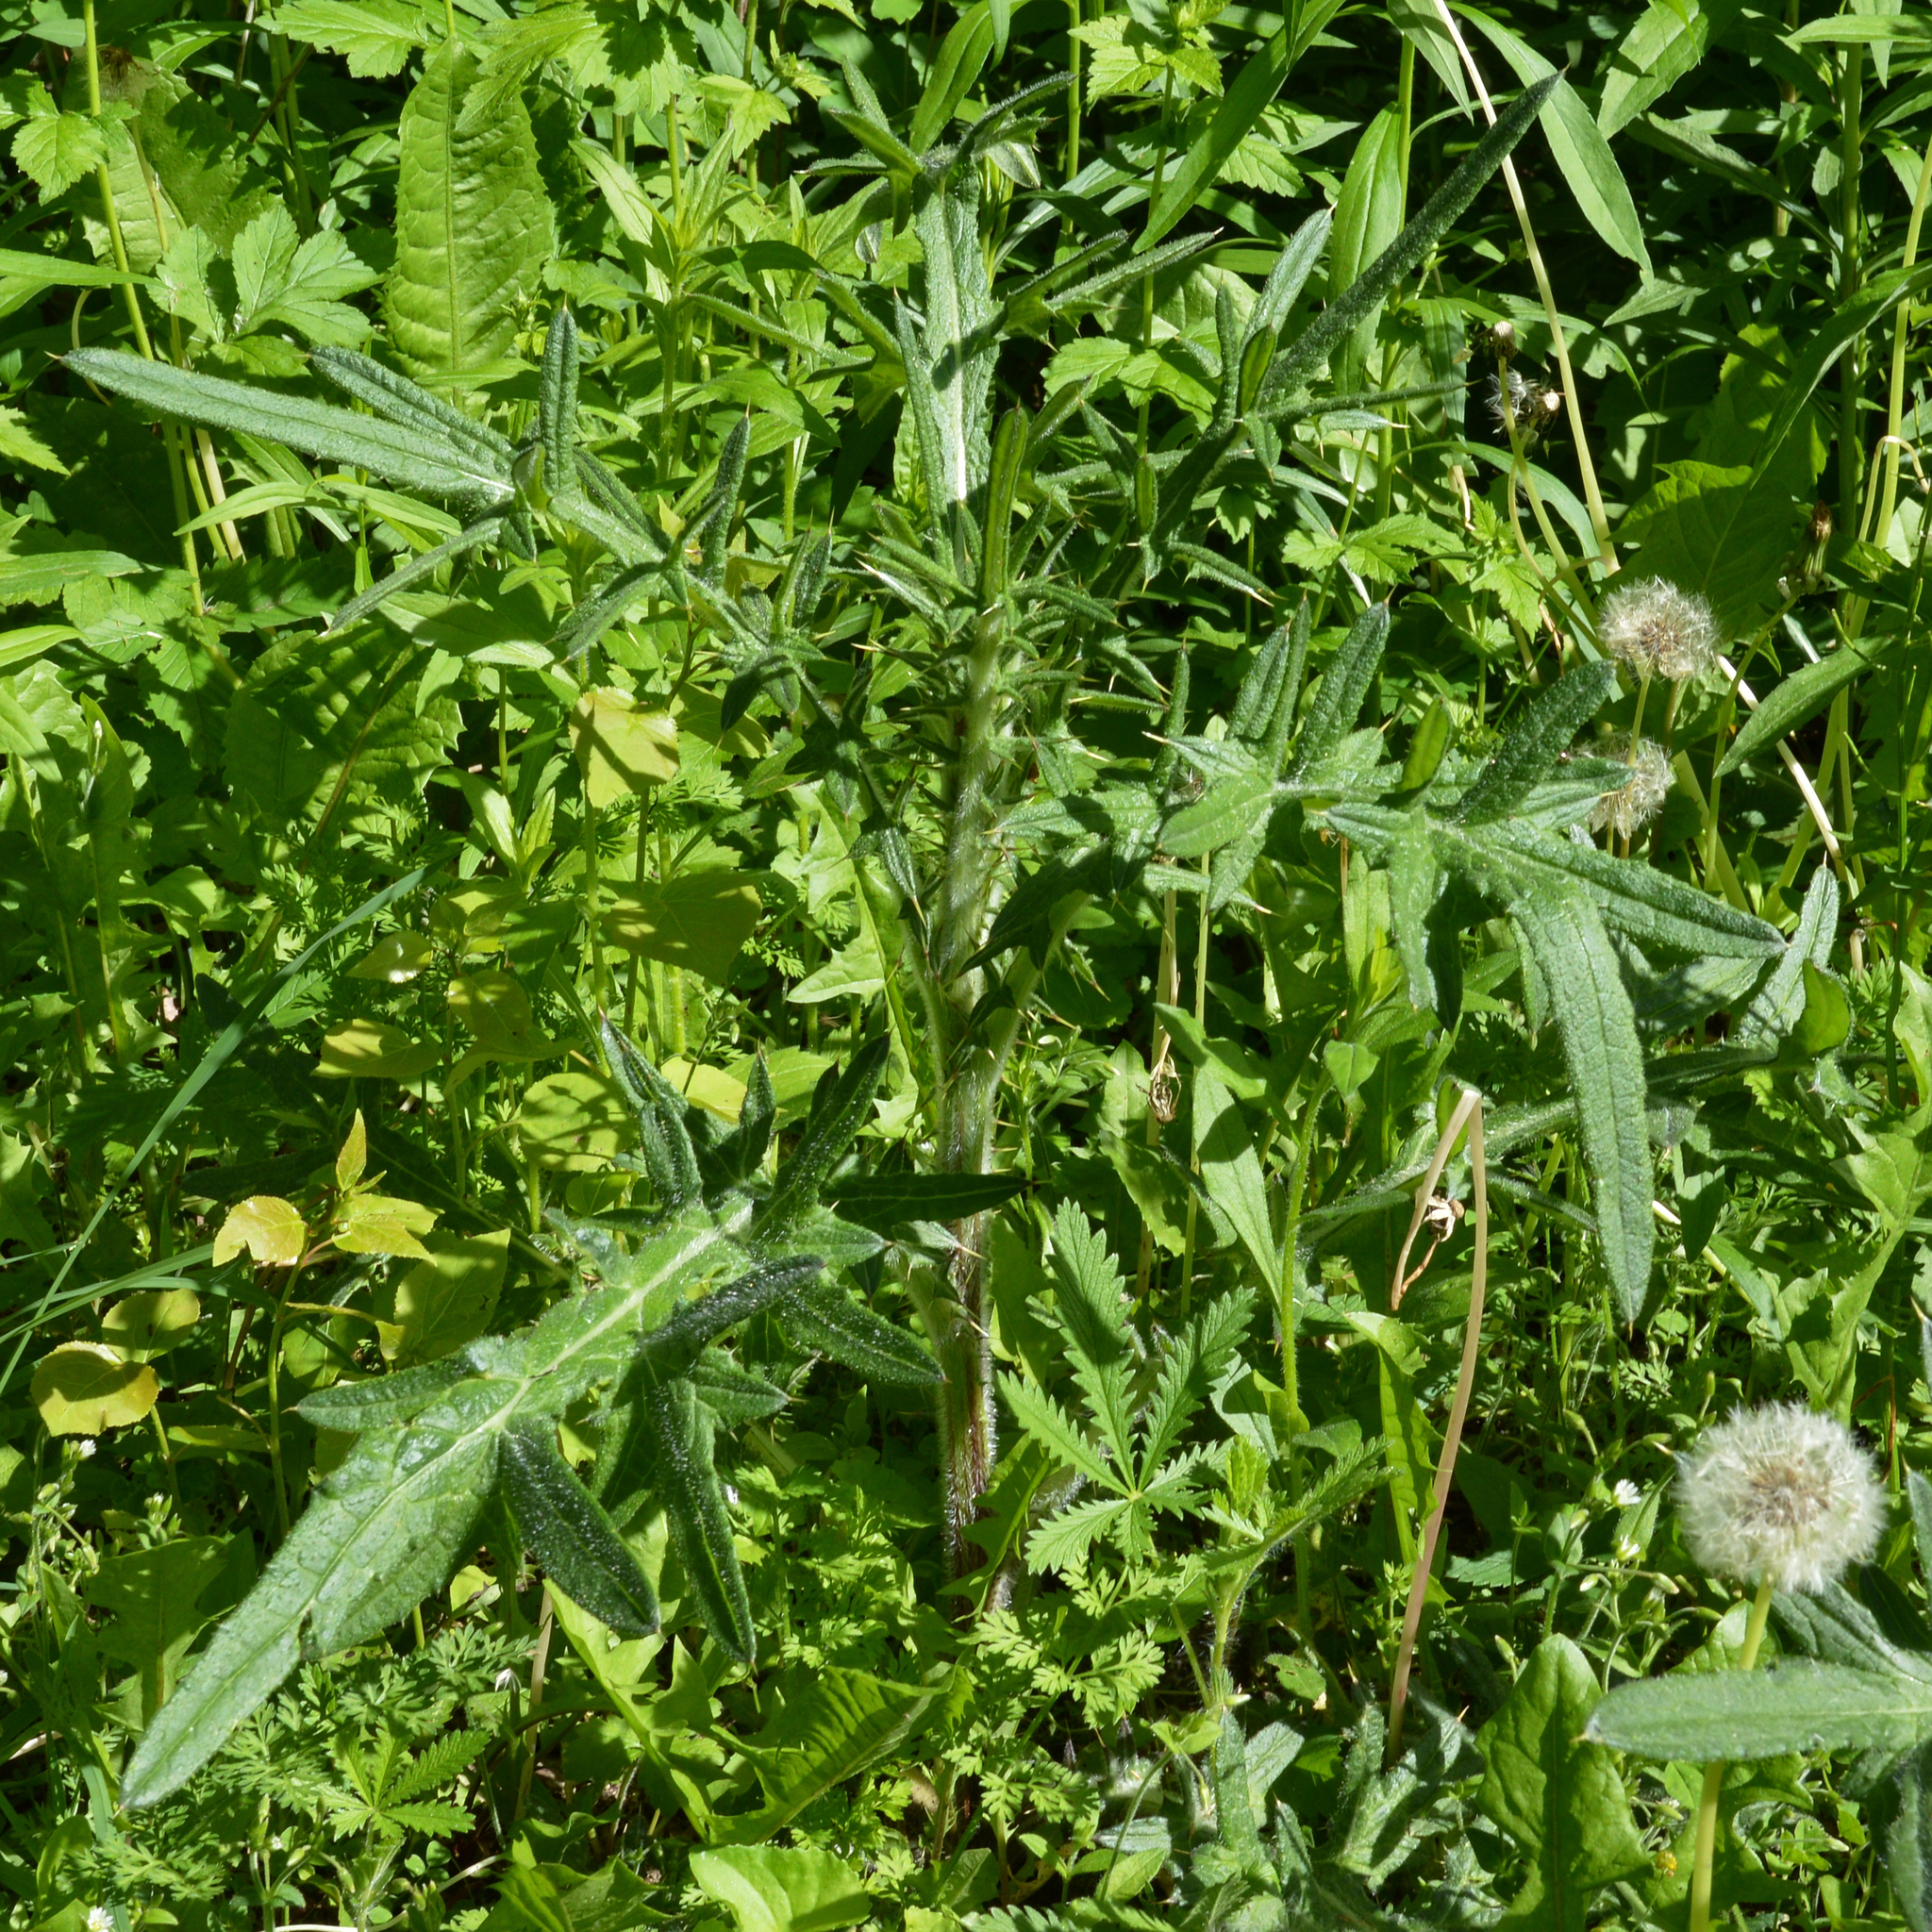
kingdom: Plantae
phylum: Tracheophyta
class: Magnoliopsida
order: Asterales
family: Asteraceae
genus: Cirsium
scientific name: Cirsium vulgare
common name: Bull thistle
